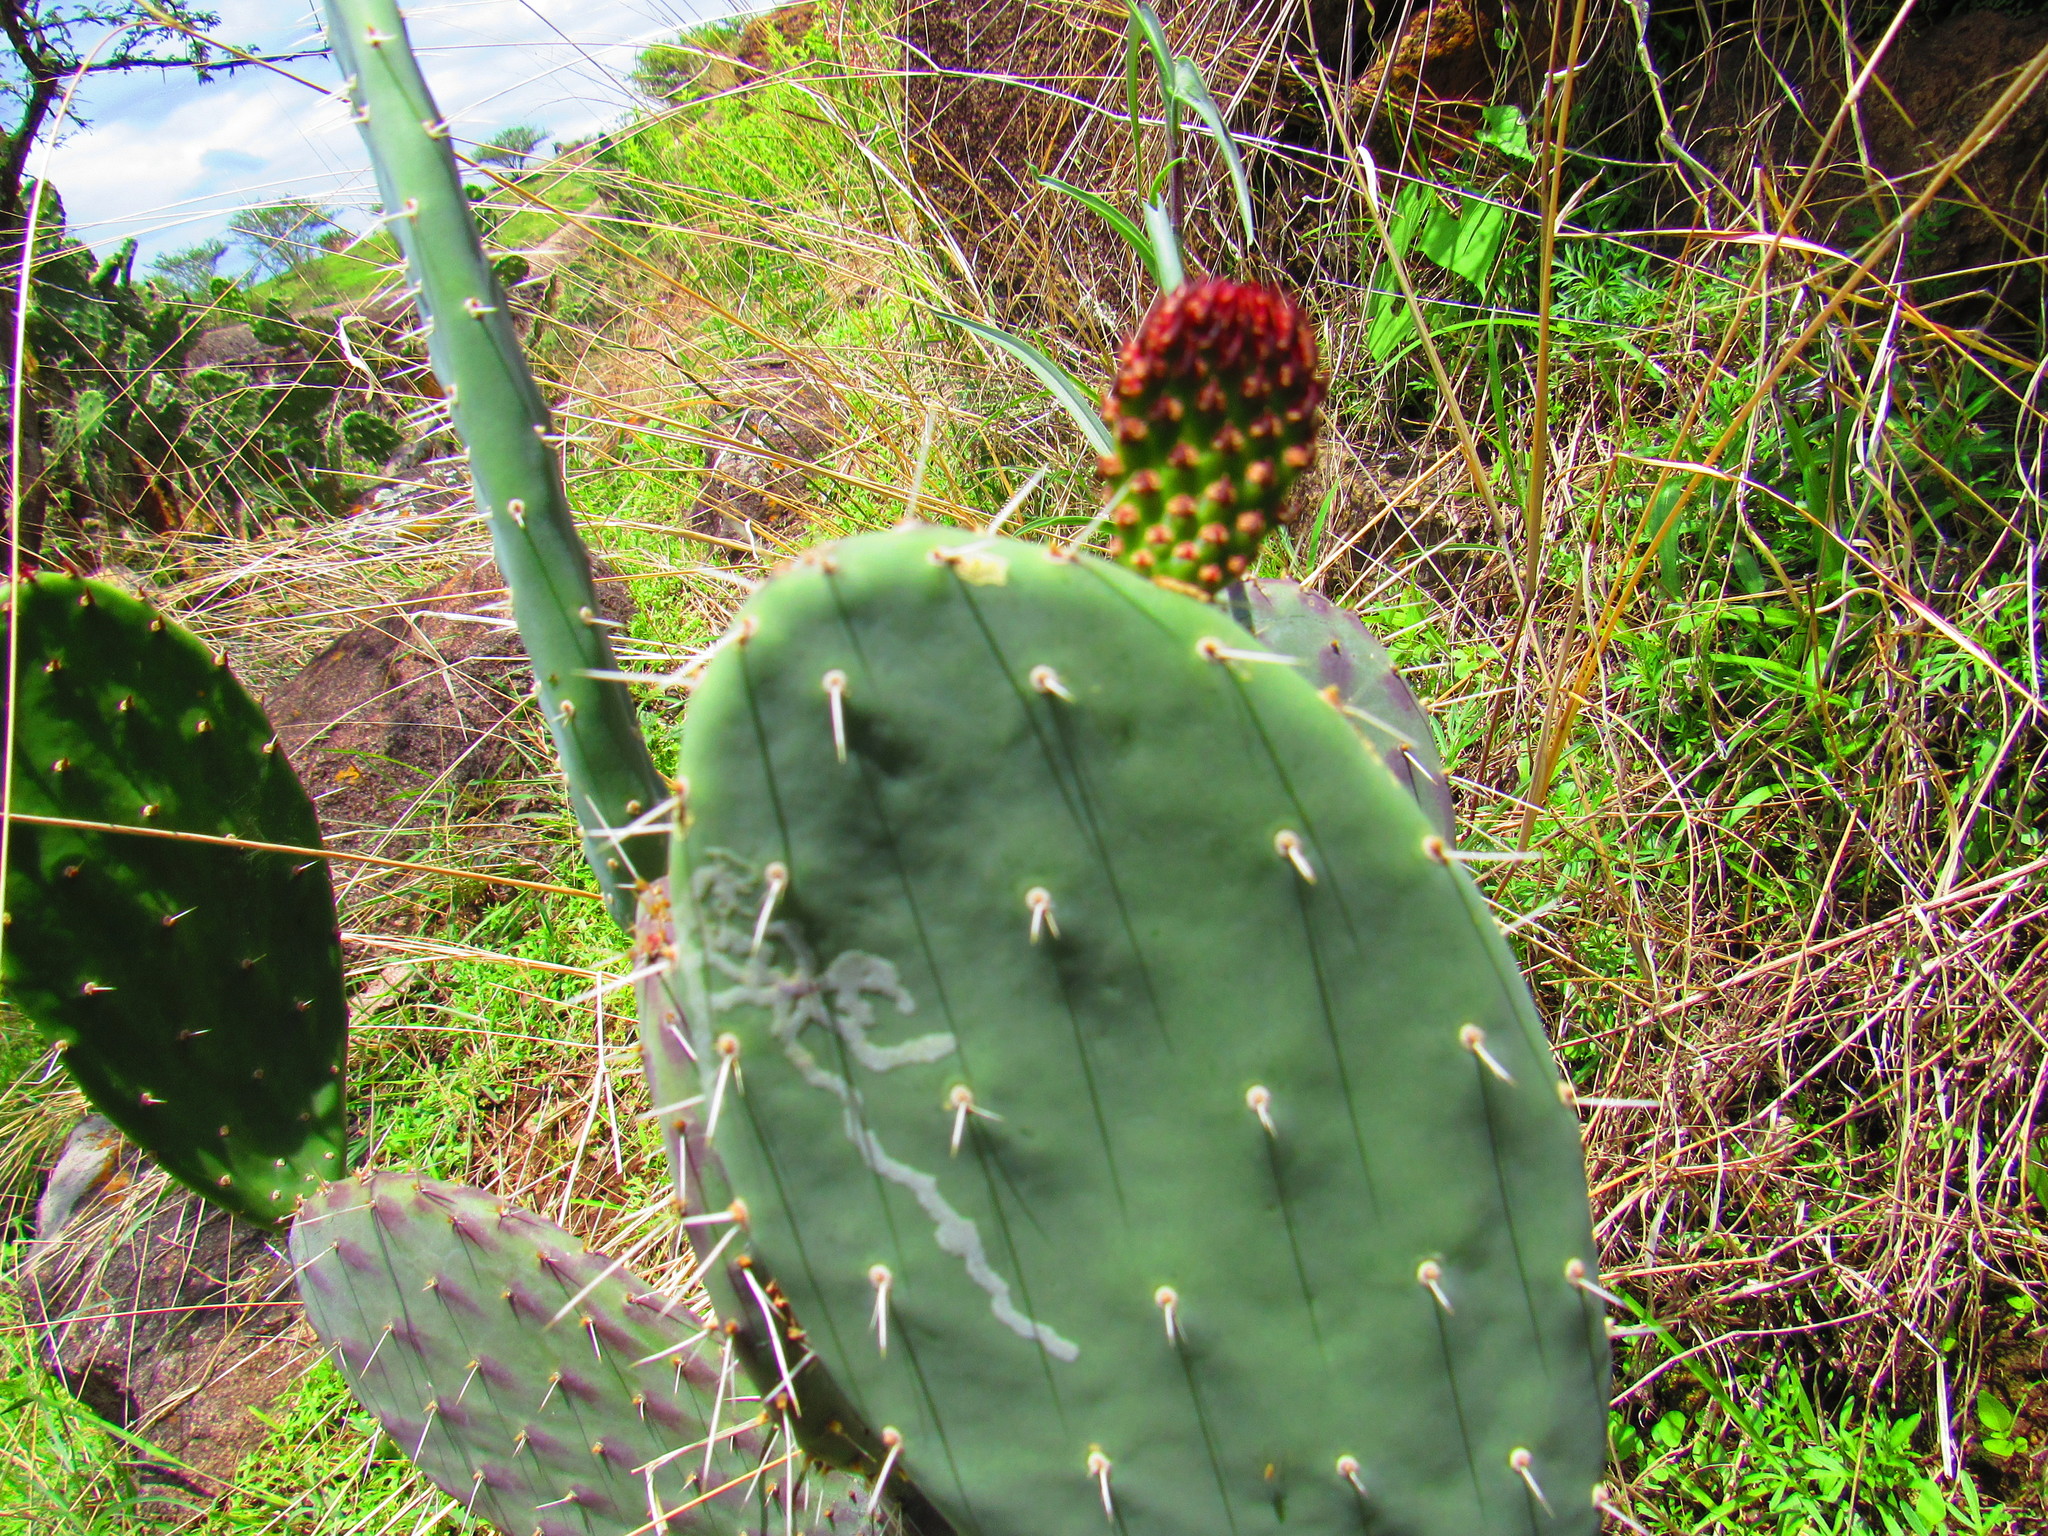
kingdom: Plantae
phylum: Tracheophyta
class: Magnoliopsida
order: Caryophyllales
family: Cactaceae
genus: Opuntia
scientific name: Opuntia lasiacantha
